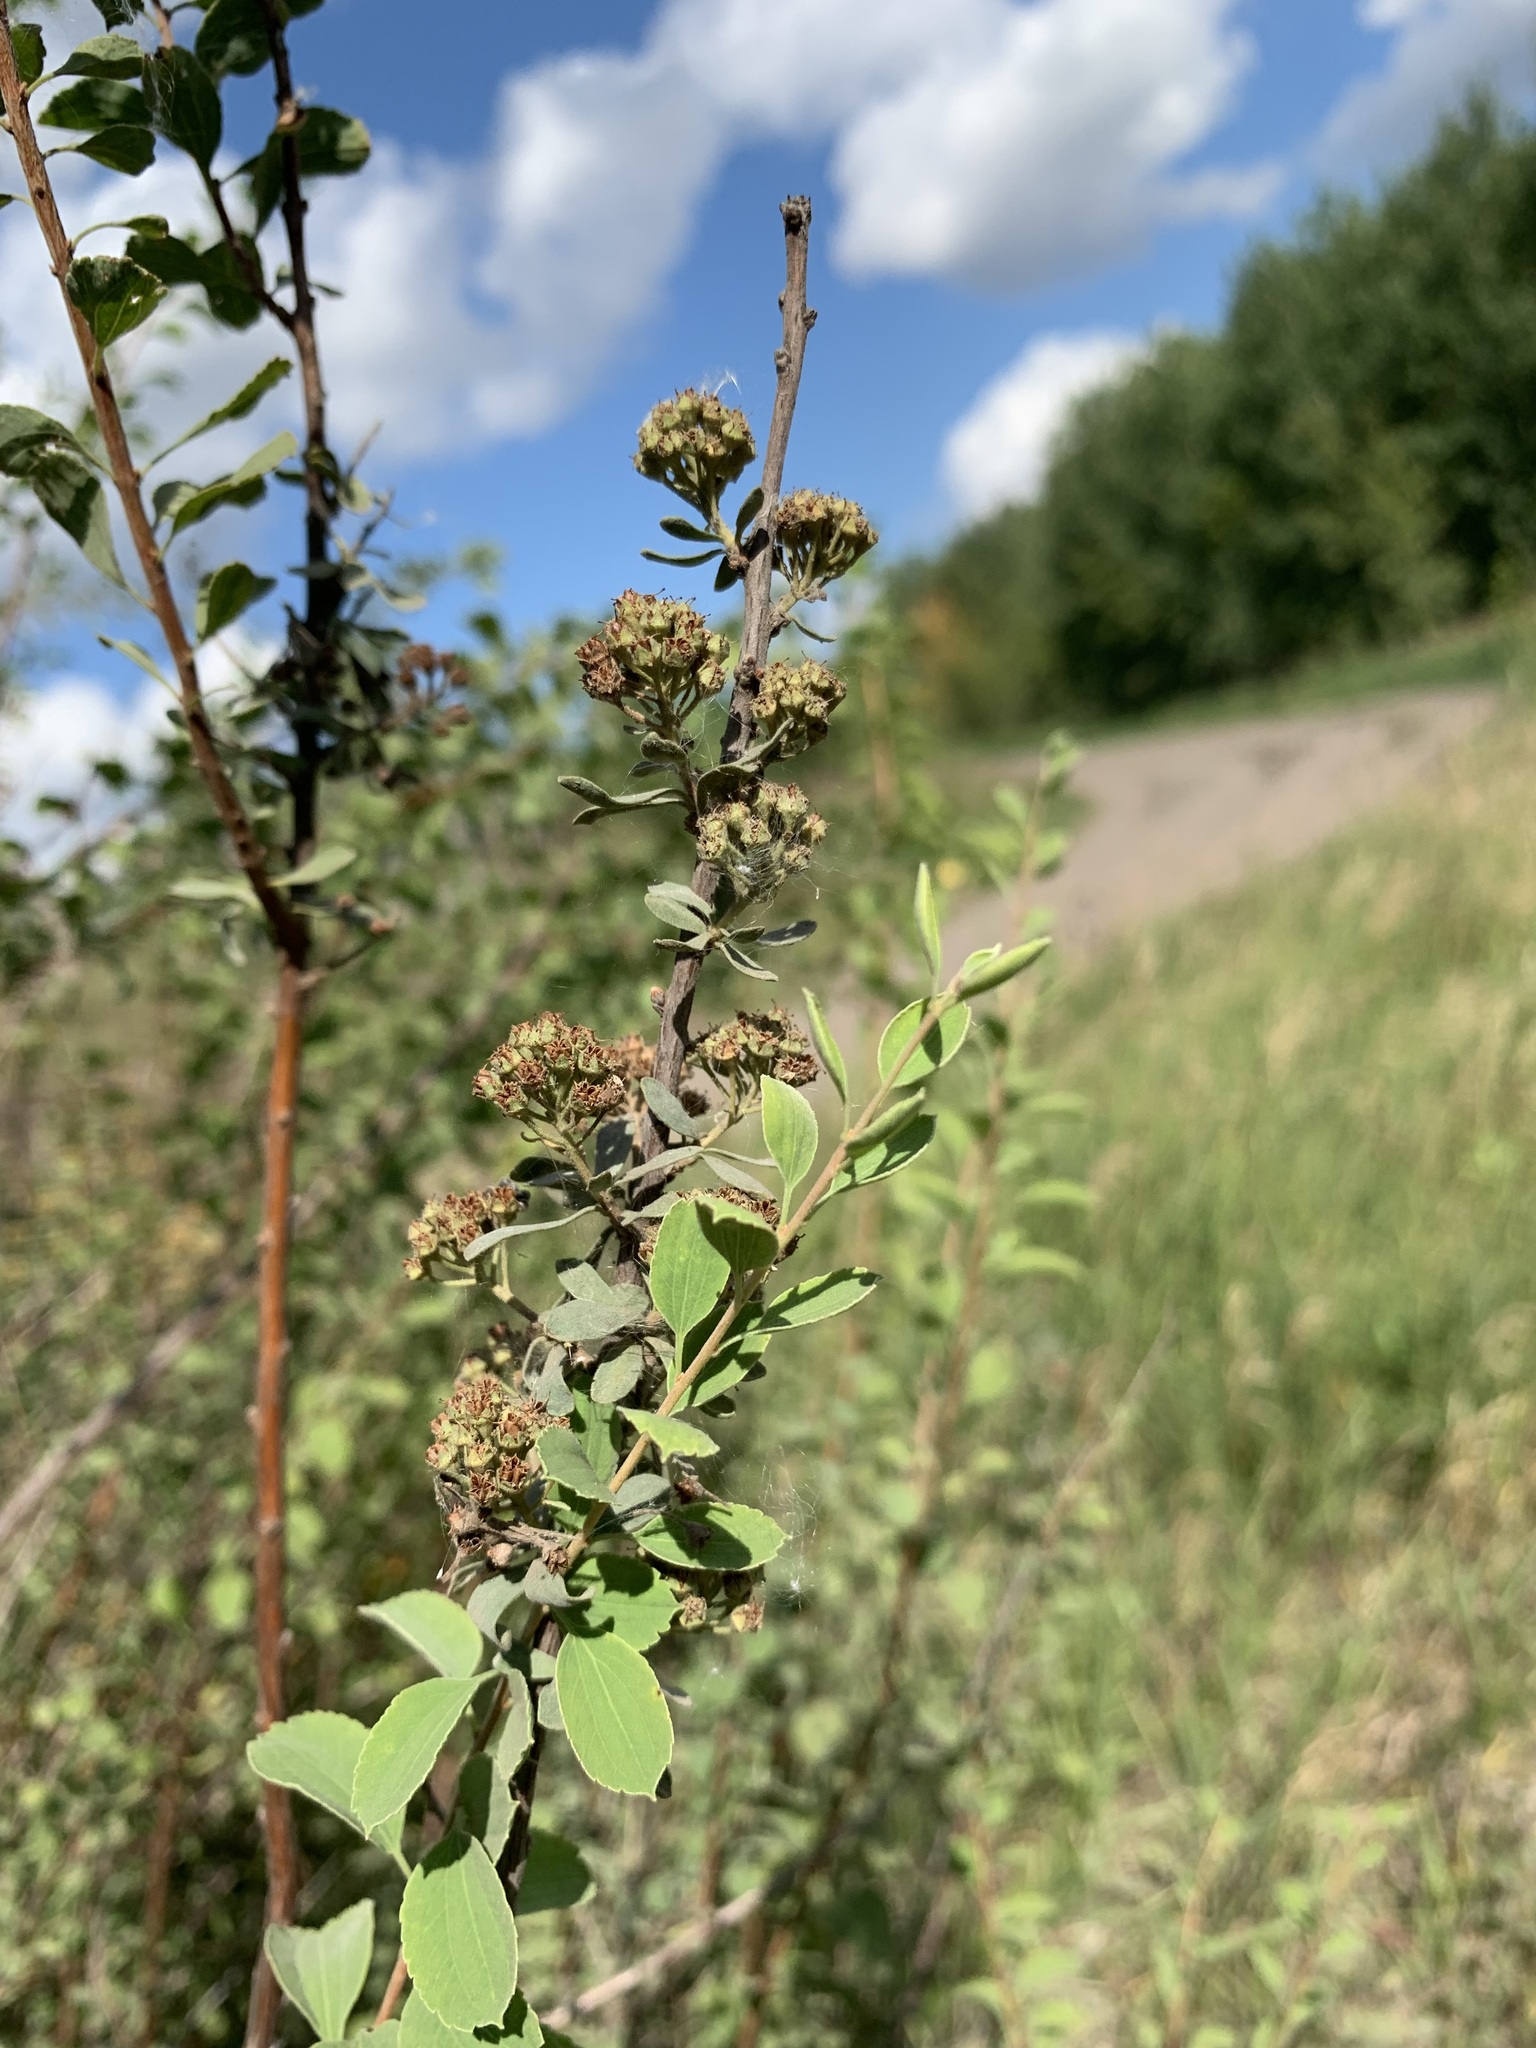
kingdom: Plantae
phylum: Tracheophyta
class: Magnoliopsida
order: Rosales
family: Rosaceae
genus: Spiraea
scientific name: Spiraea crenata
